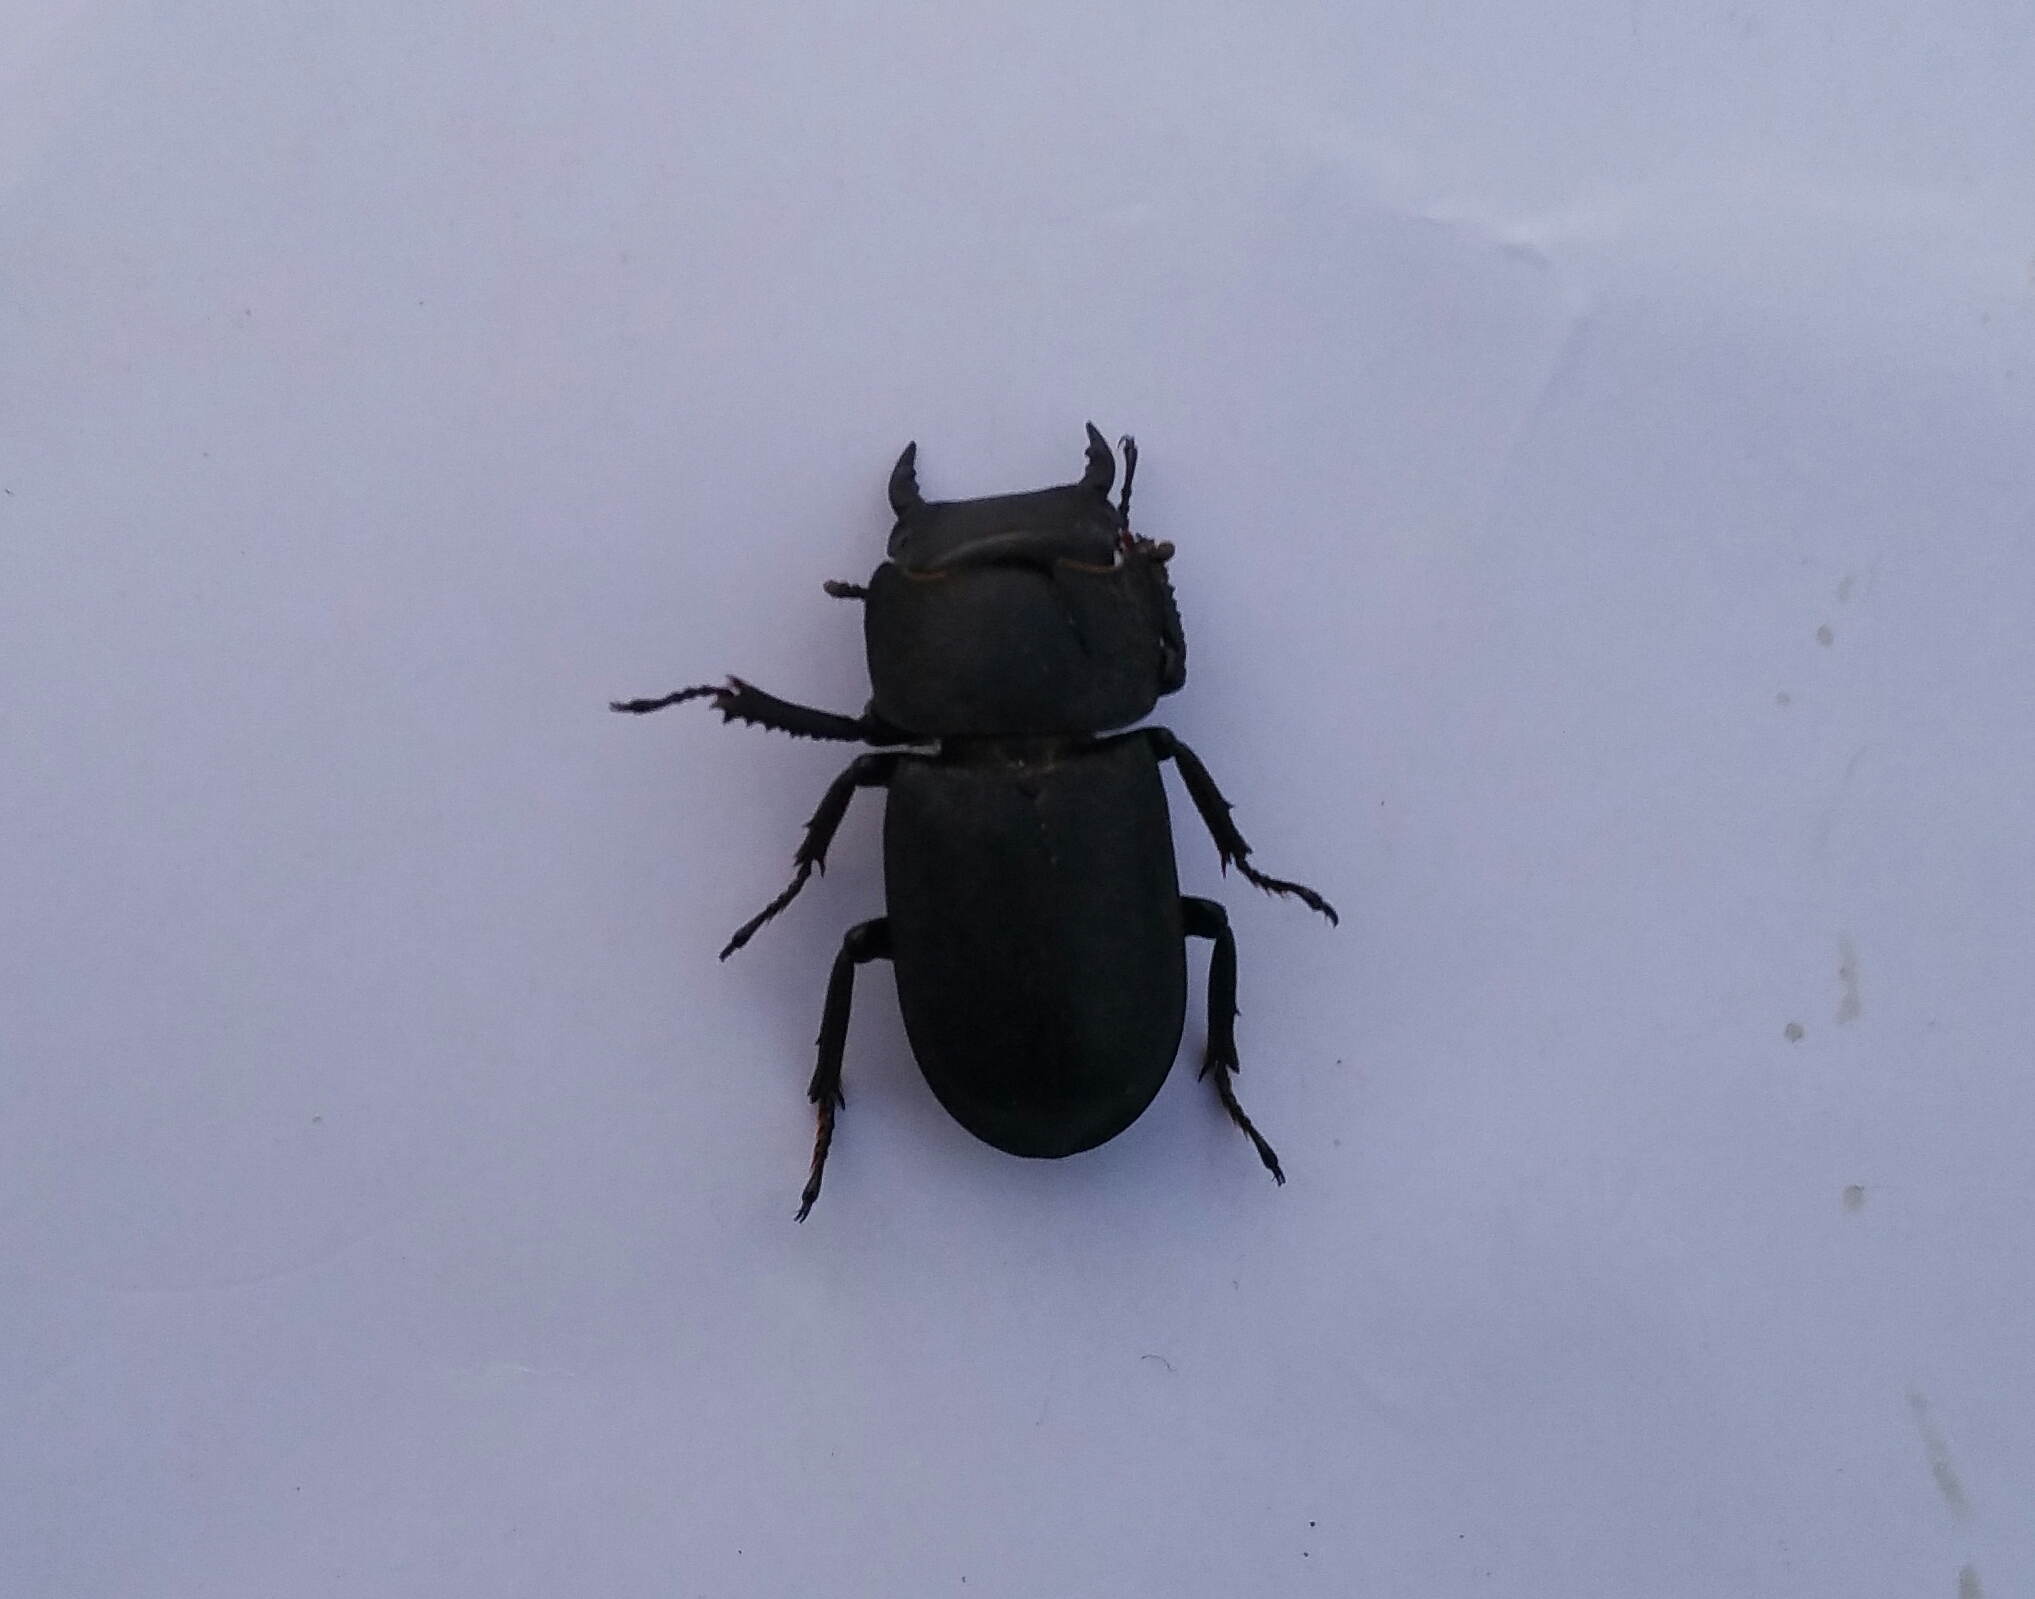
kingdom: Animalia
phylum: Arthropoda
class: Insecta
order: Coleoptera
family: Lucanidae
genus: Dorcus
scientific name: Dorcus parallelipipedus
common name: Lesser stag beetle
